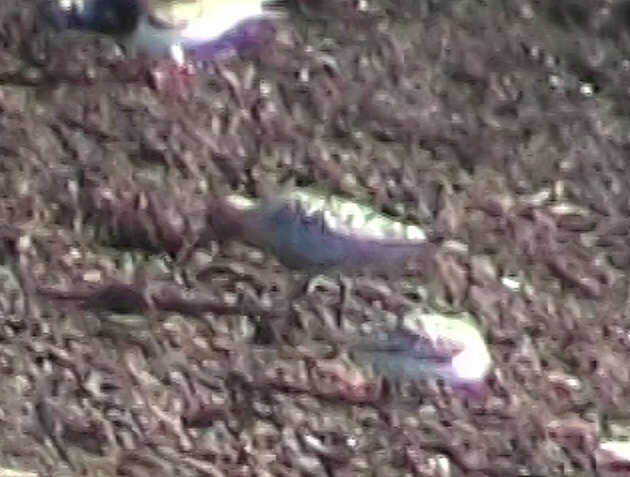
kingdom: Animalia
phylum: Chordata
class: Aves
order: Charadriiformes
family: Scolopacidae
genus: Calidris
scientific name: Calidris canutus
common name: Red knot
